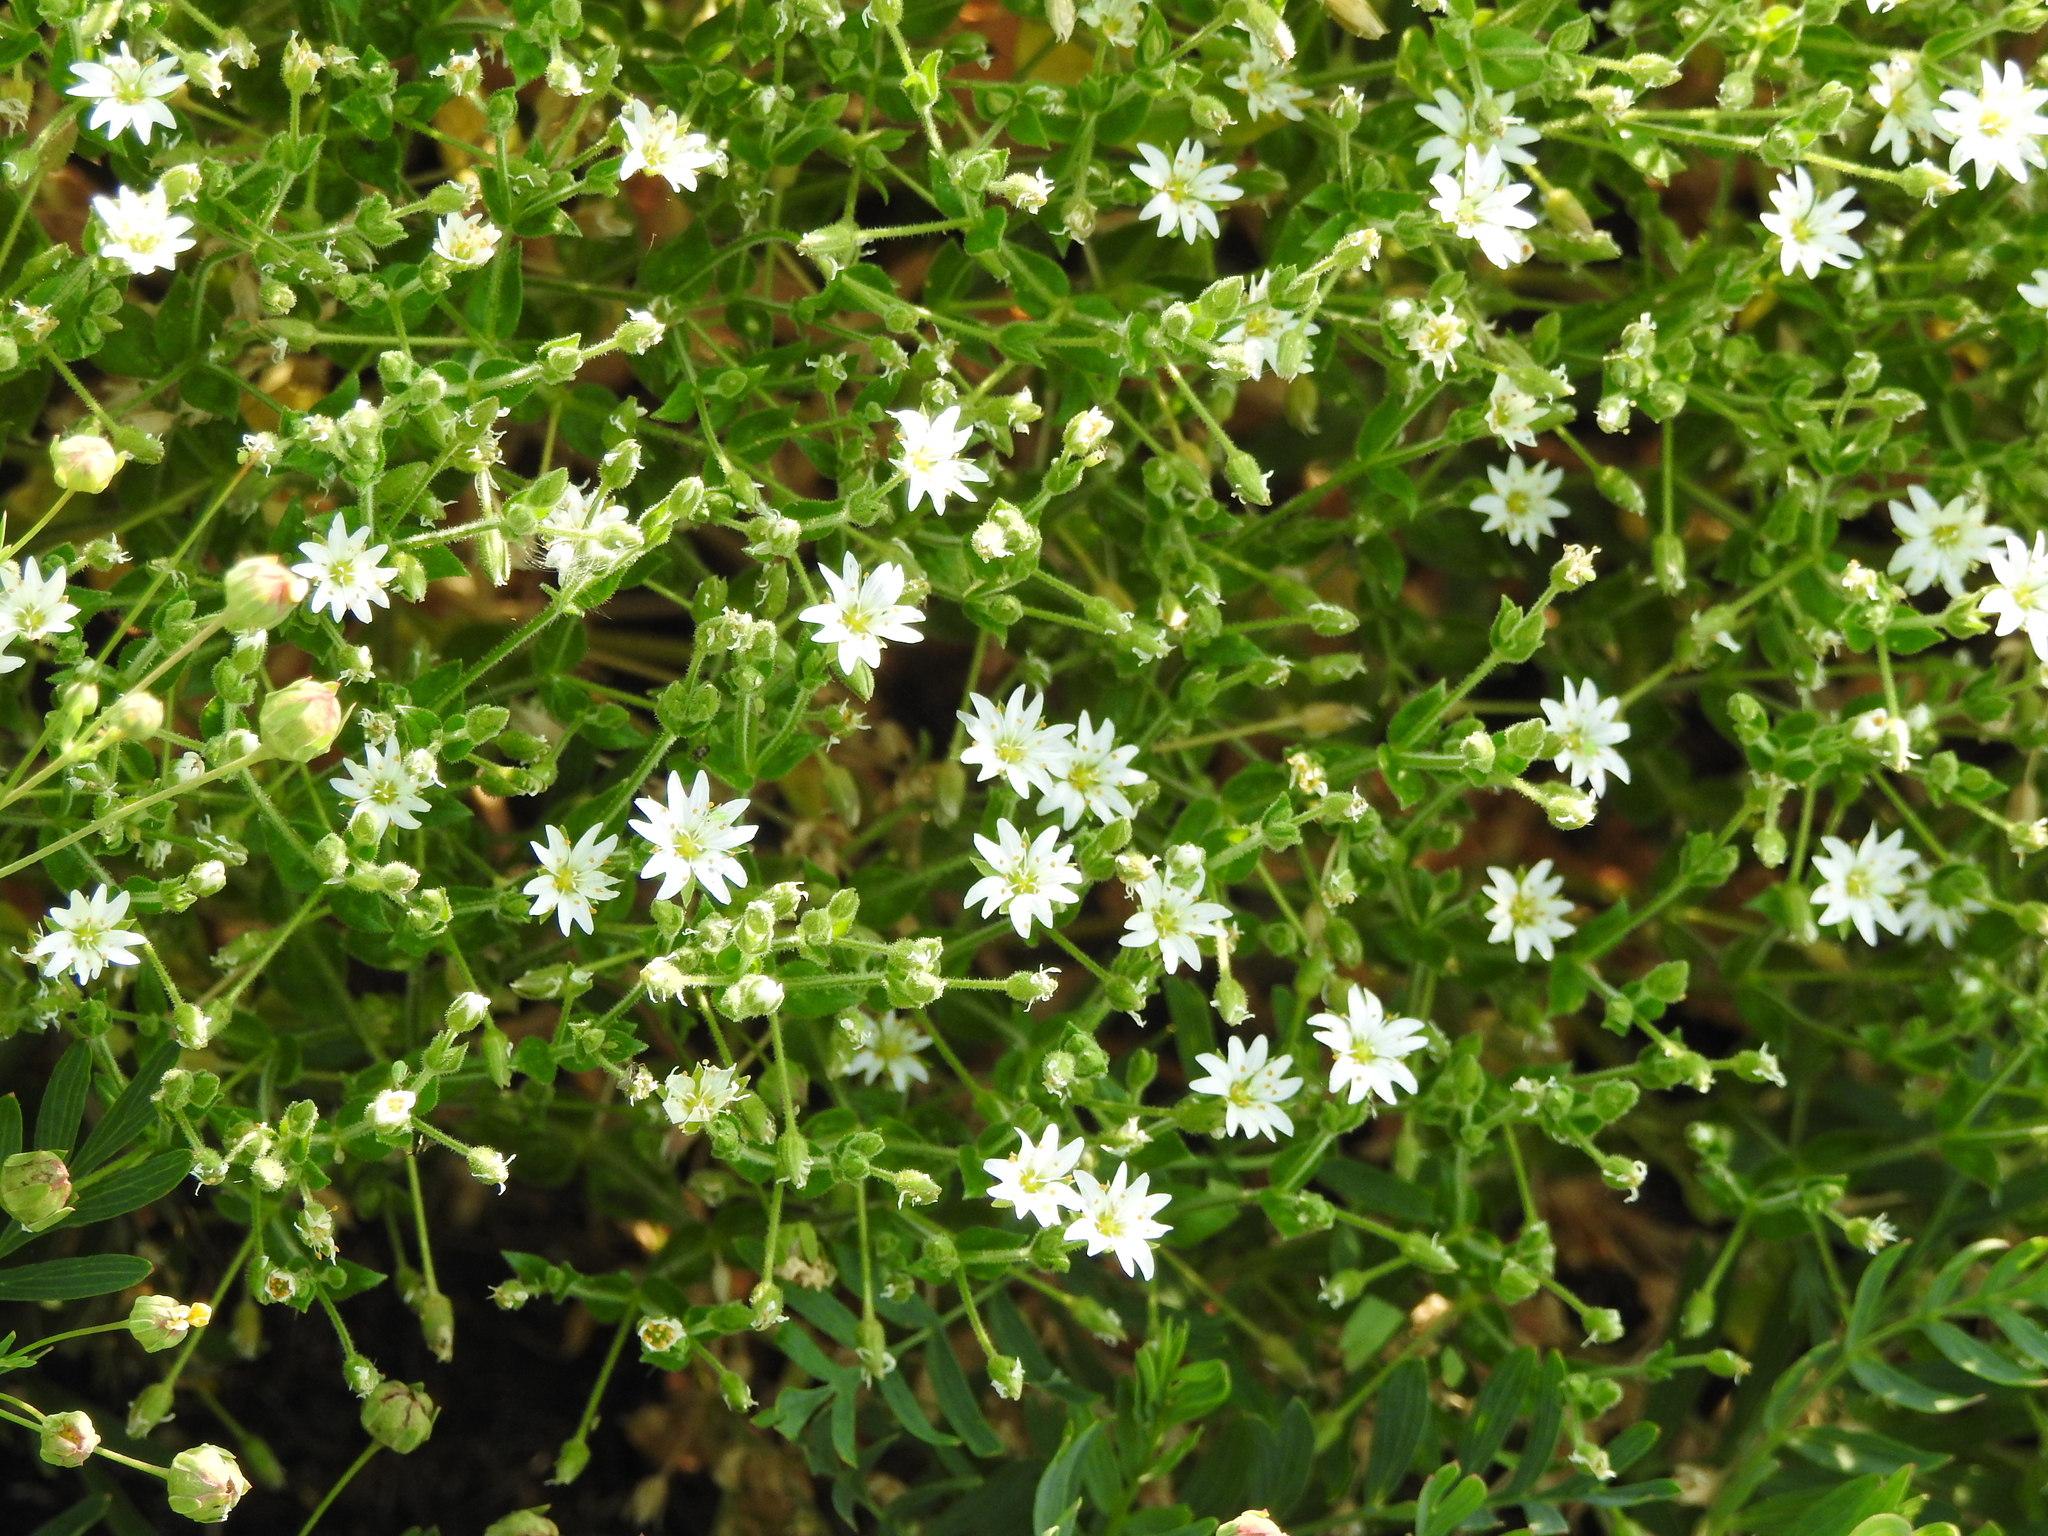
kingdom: Plantae
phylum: Tracheophyta
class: Magnoliopsida
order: Caryophyllales
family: Caryophyllaceae
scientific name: Caryophyllaceae
